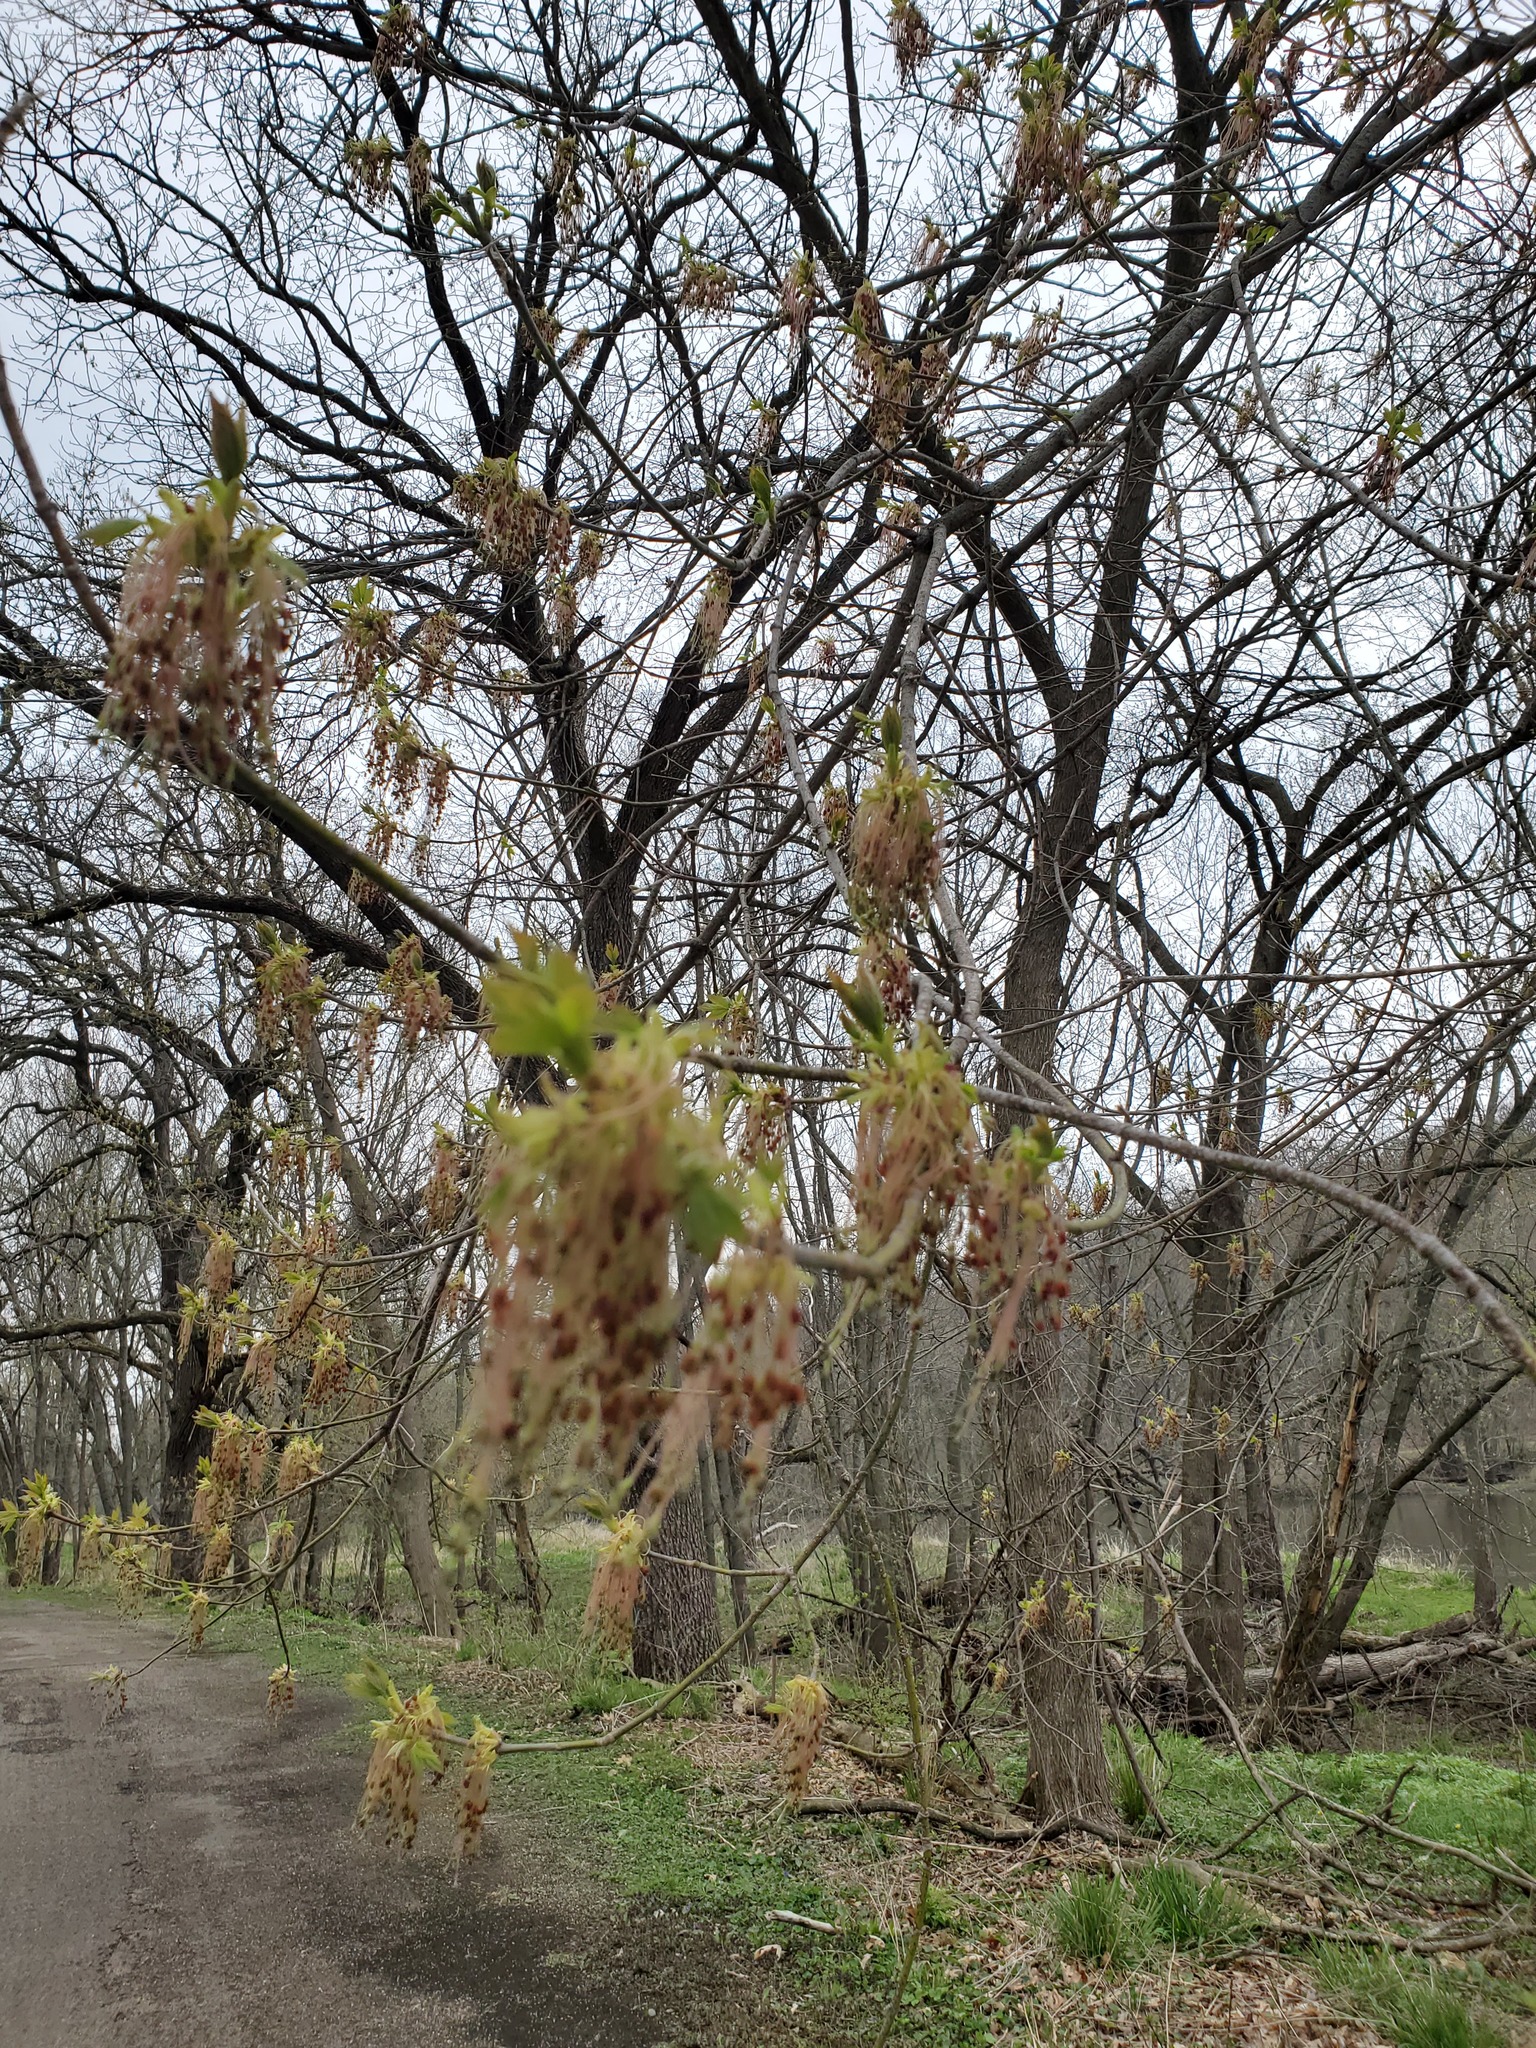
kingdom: Plantae
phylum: Tracheophyta
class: Magnoliopsida
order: Sapindales
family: Sapindaceae
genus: Acer
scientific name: Acer negundo
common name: Ashleaf maple
